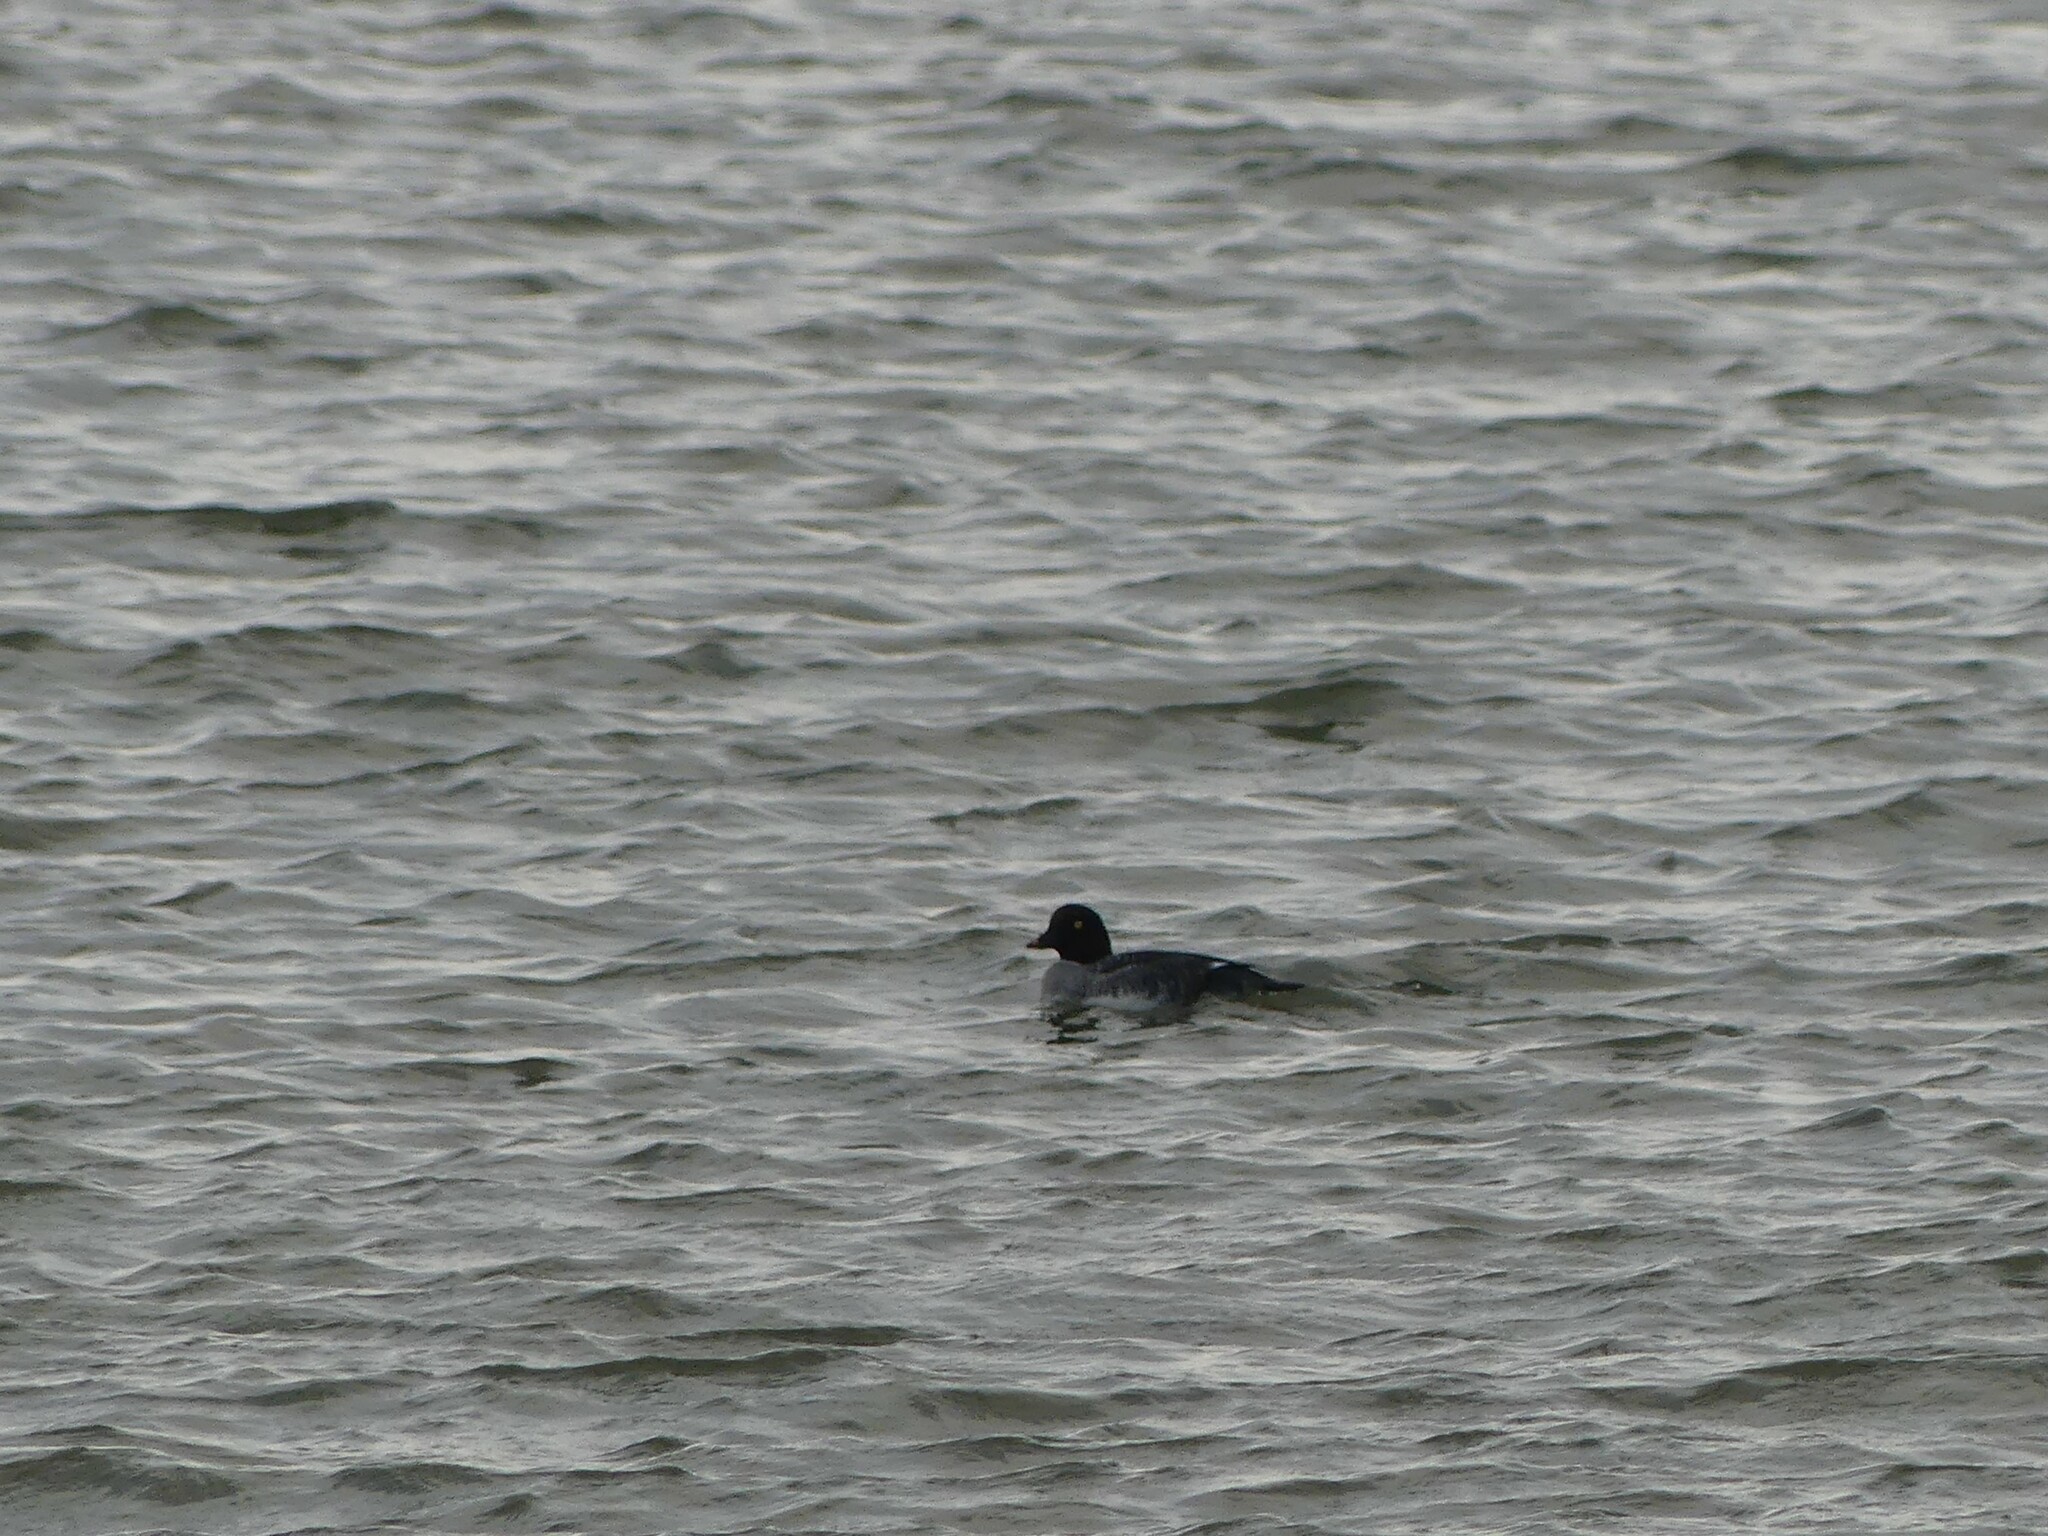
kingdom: Animalia
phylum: Chordata
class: Aves
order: Anseriformes
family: Anatidae
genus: Bucephala
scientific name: Bucephala clangula
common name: Common goldeneye
